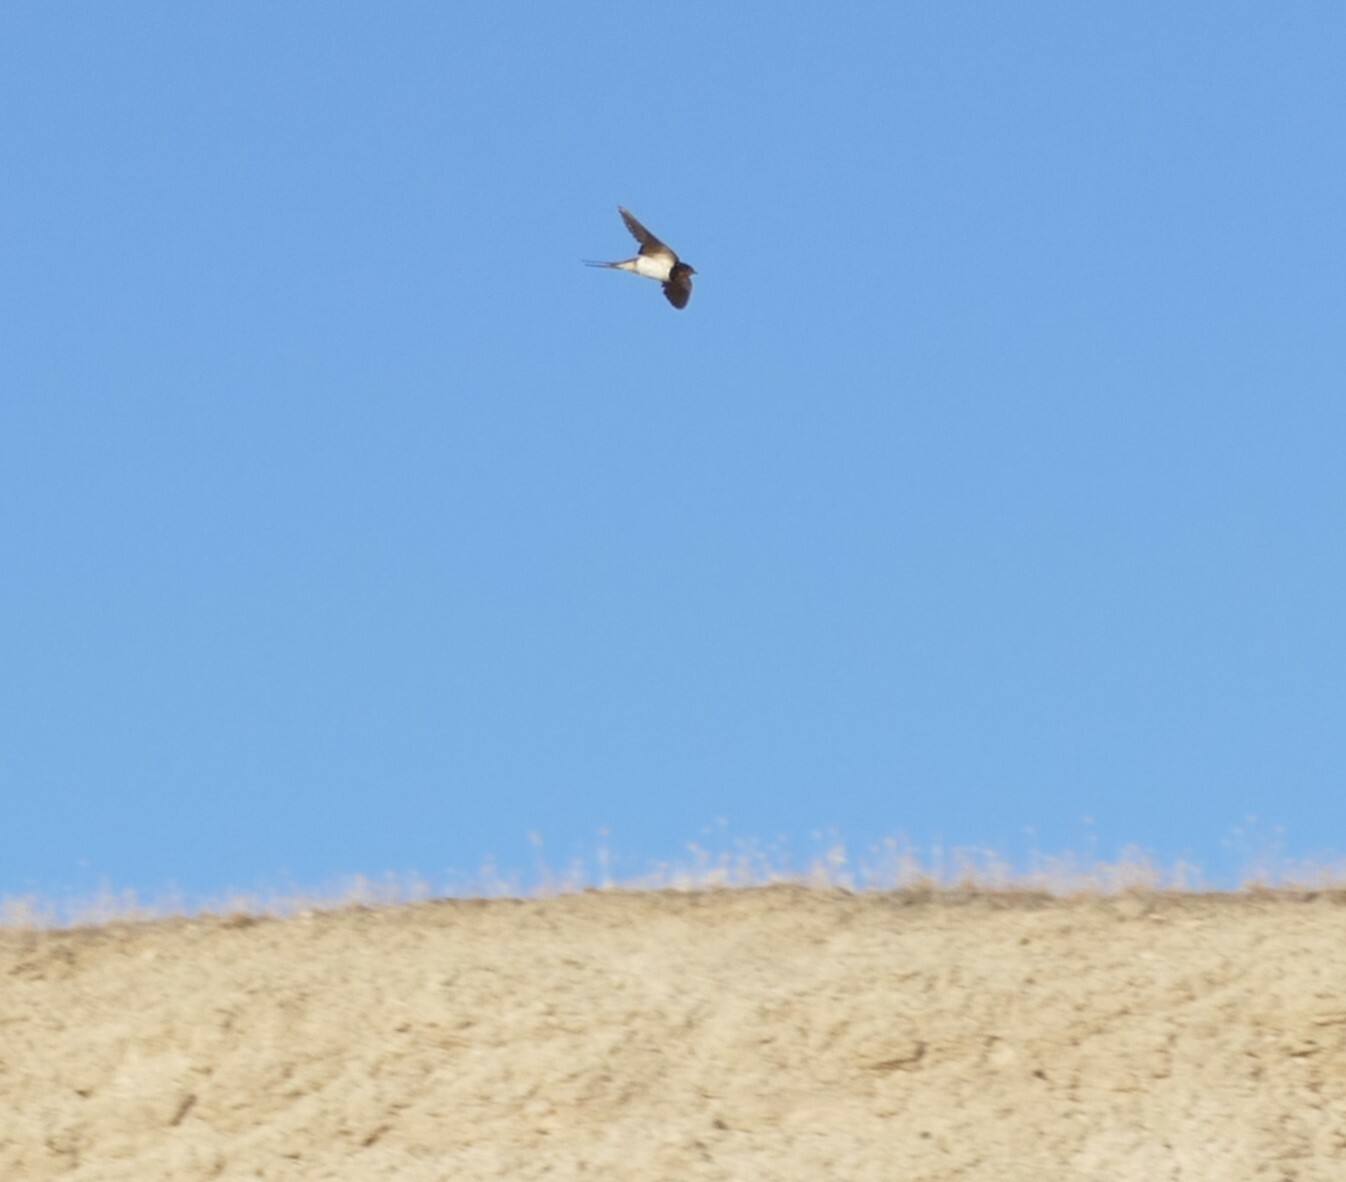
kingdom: Animalia
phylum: Chordata
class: Aves
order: Passeriformes
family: Hirundinidae
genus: Hirundo
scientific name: Hirundo rustica
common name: Barn swallow
